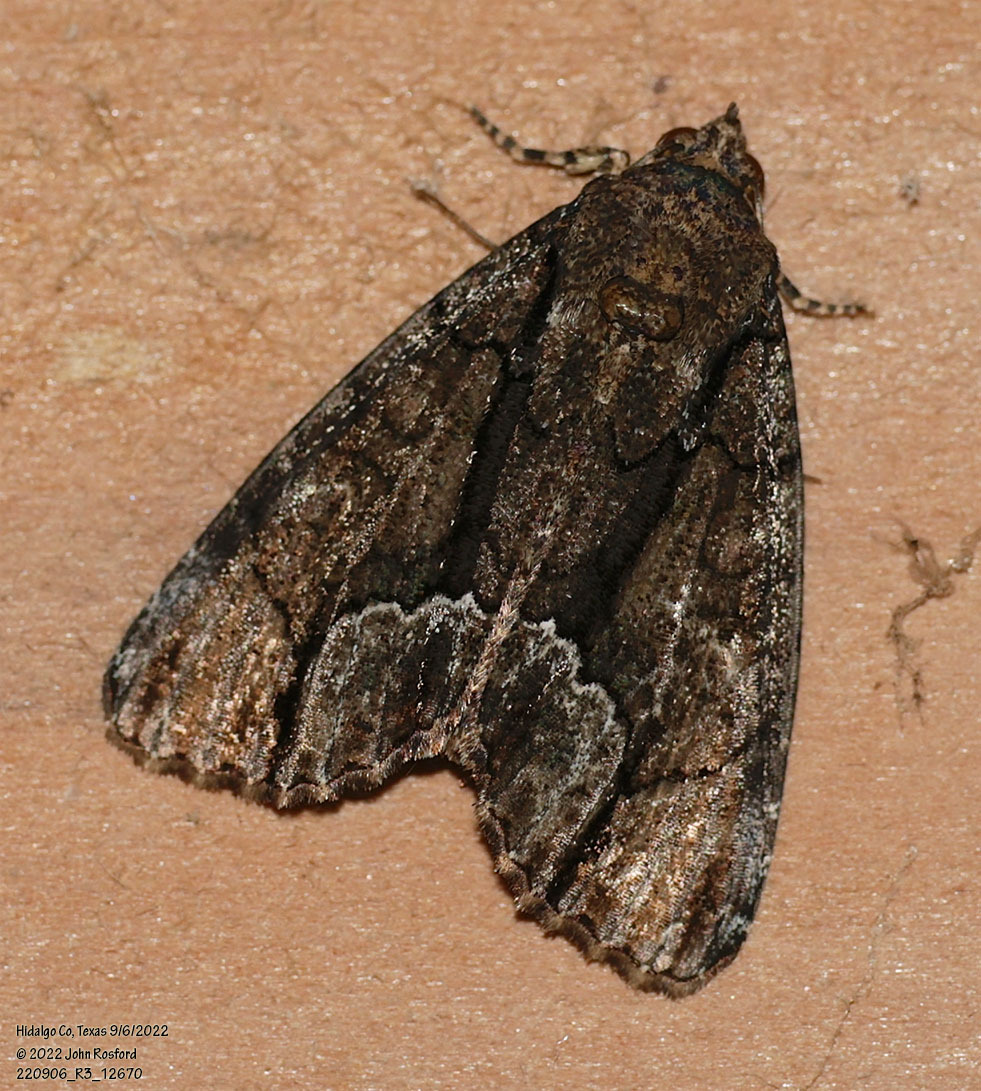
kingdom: Animalia
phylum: Arthropoda
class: Insecta
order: Lepidoptera
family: Noctuidae
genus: Cropia
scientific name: Cropia connecta
